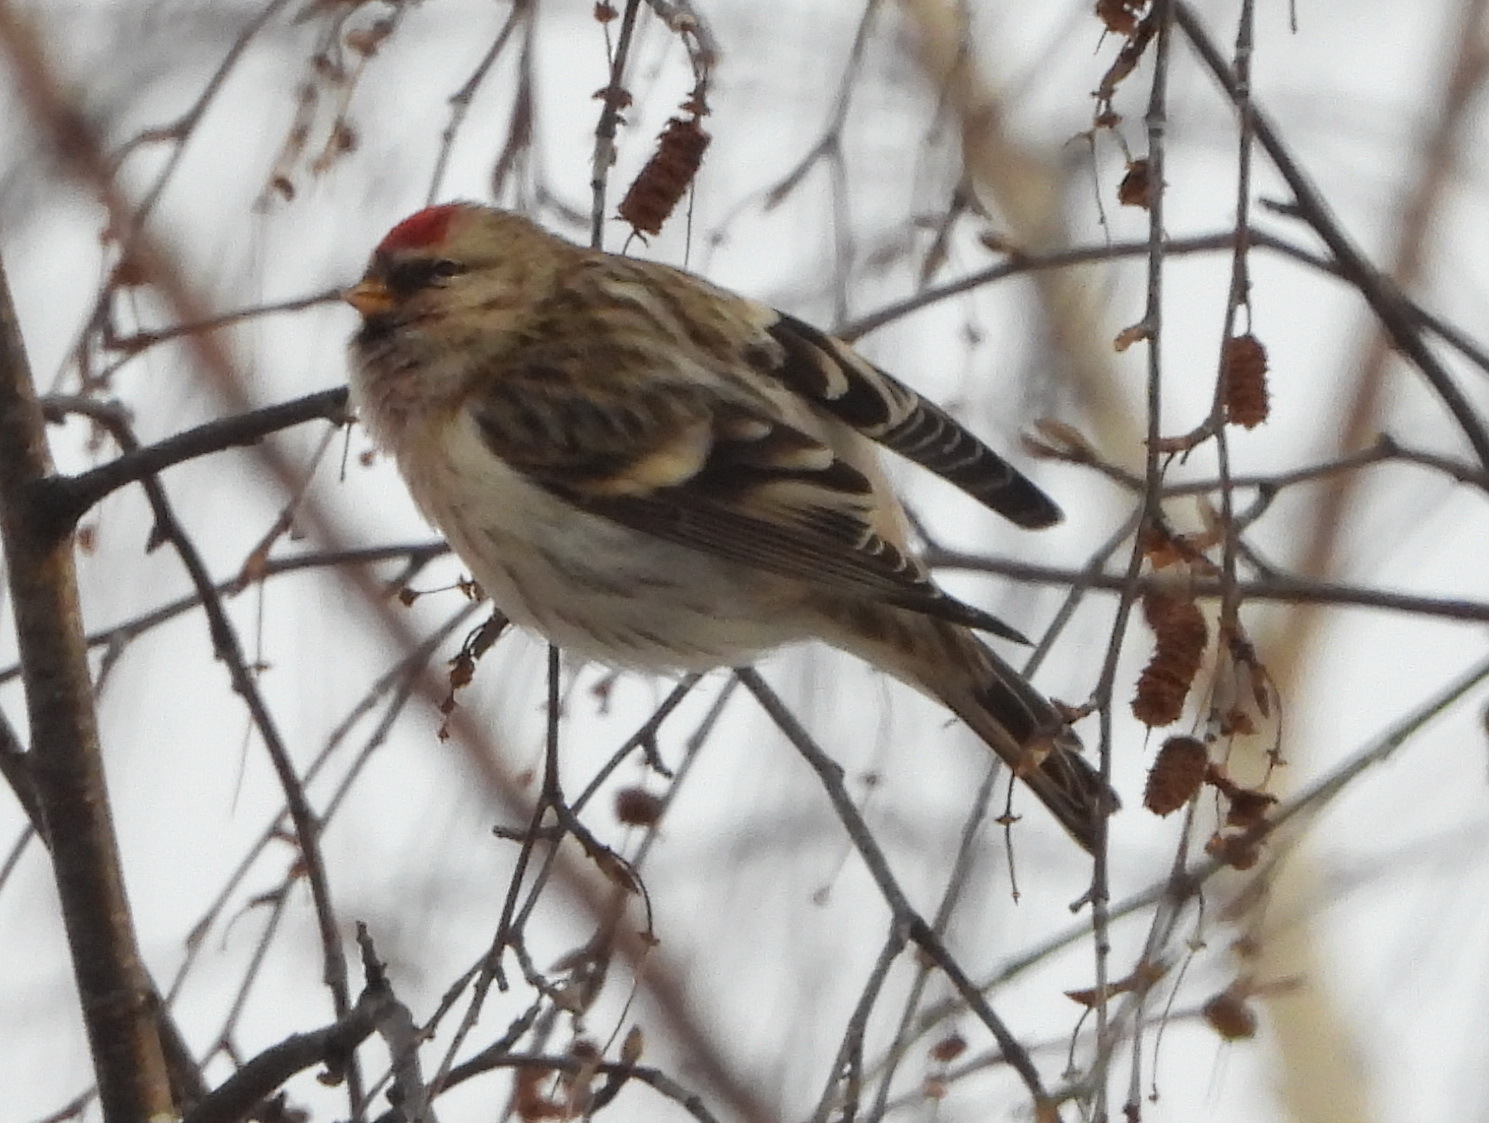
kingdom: Animalia
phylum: Chordata
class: Aves
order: Passeriformes
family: Fringillidae
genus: Acanthis
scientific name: Acanthis hornemanni
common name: Arctic redpoll
